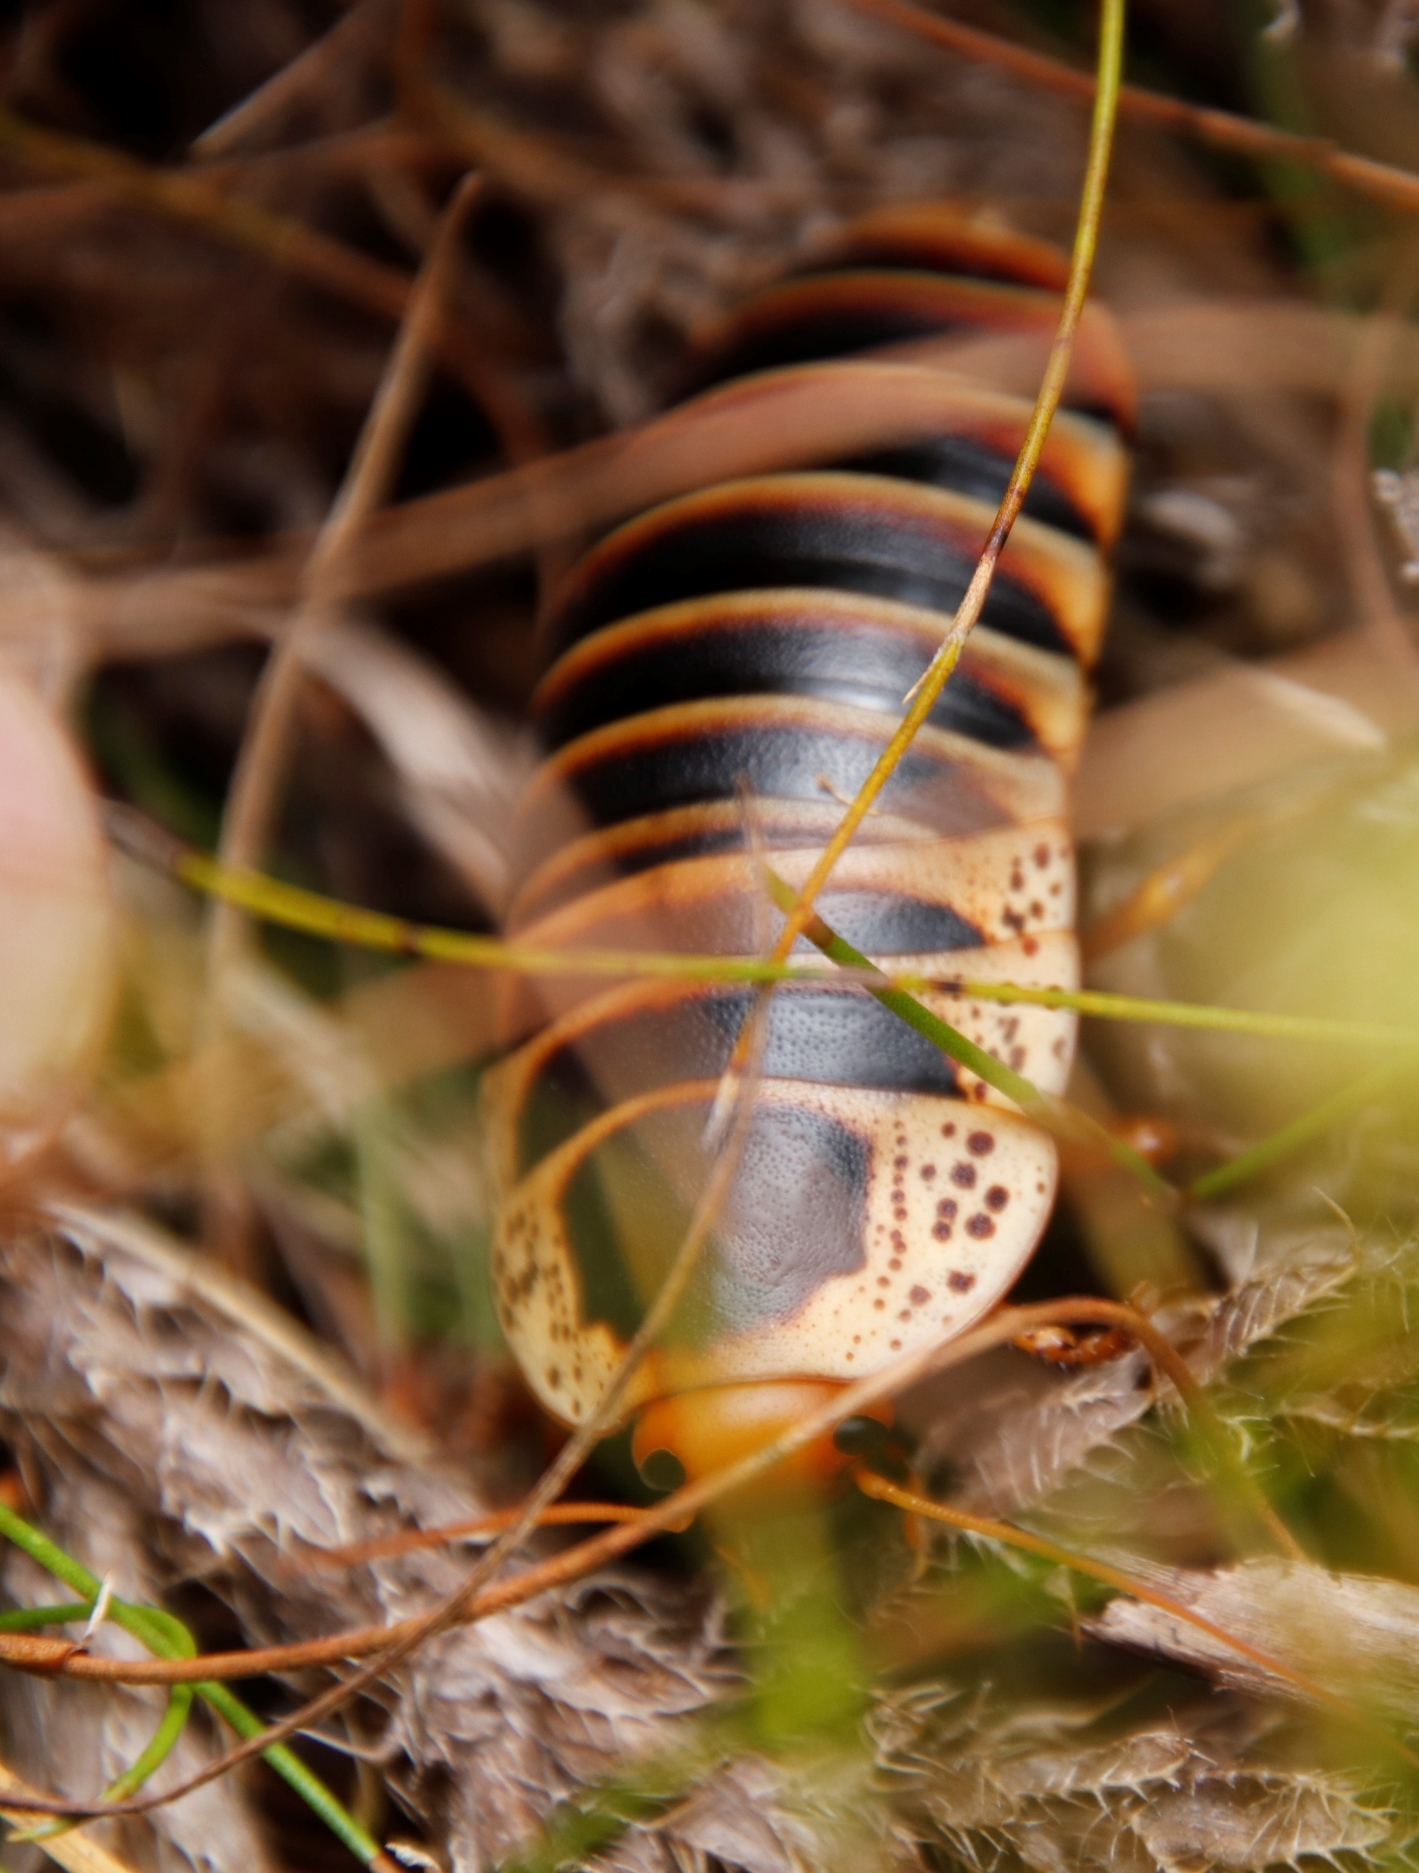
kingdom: Animalia
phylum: Arthropoda
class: Insecta
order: Blattodea
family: Blaberidae
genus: Aptera
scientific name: Aptera fusca
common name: Cape mountain cockroach
